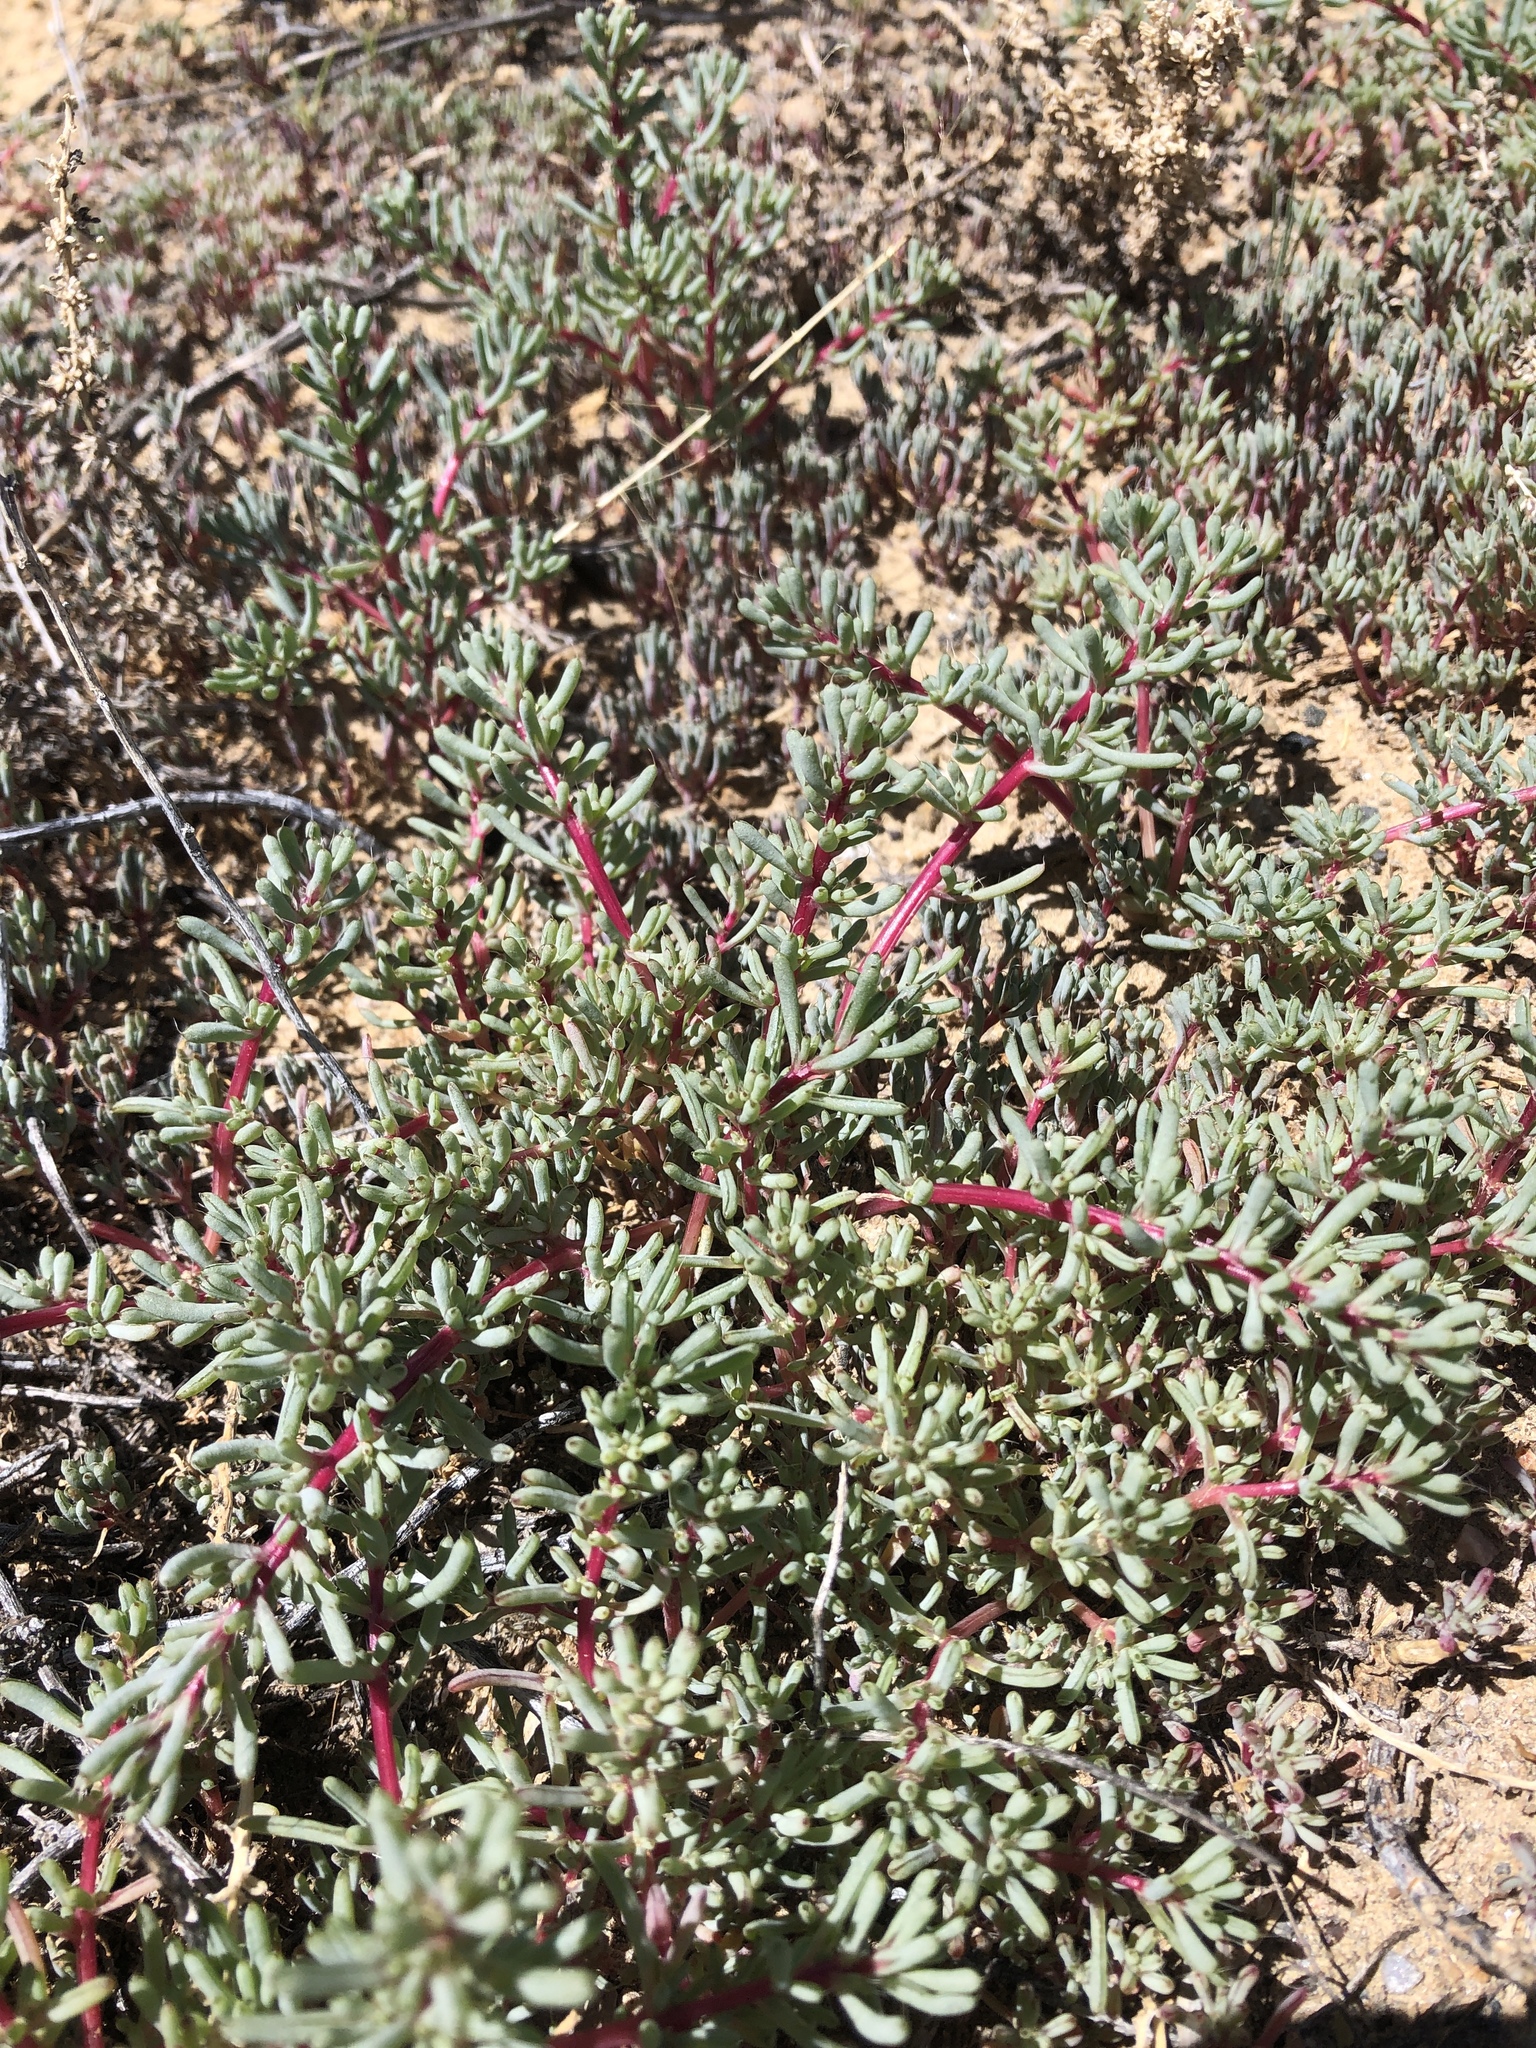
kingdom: Plantae
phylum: Tracheophyta
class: Magnoliopsida
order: Caryophyllales
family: Amaranthaceae
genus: Halogeton
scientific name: Halogeton glomeratus
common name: Saltlover
